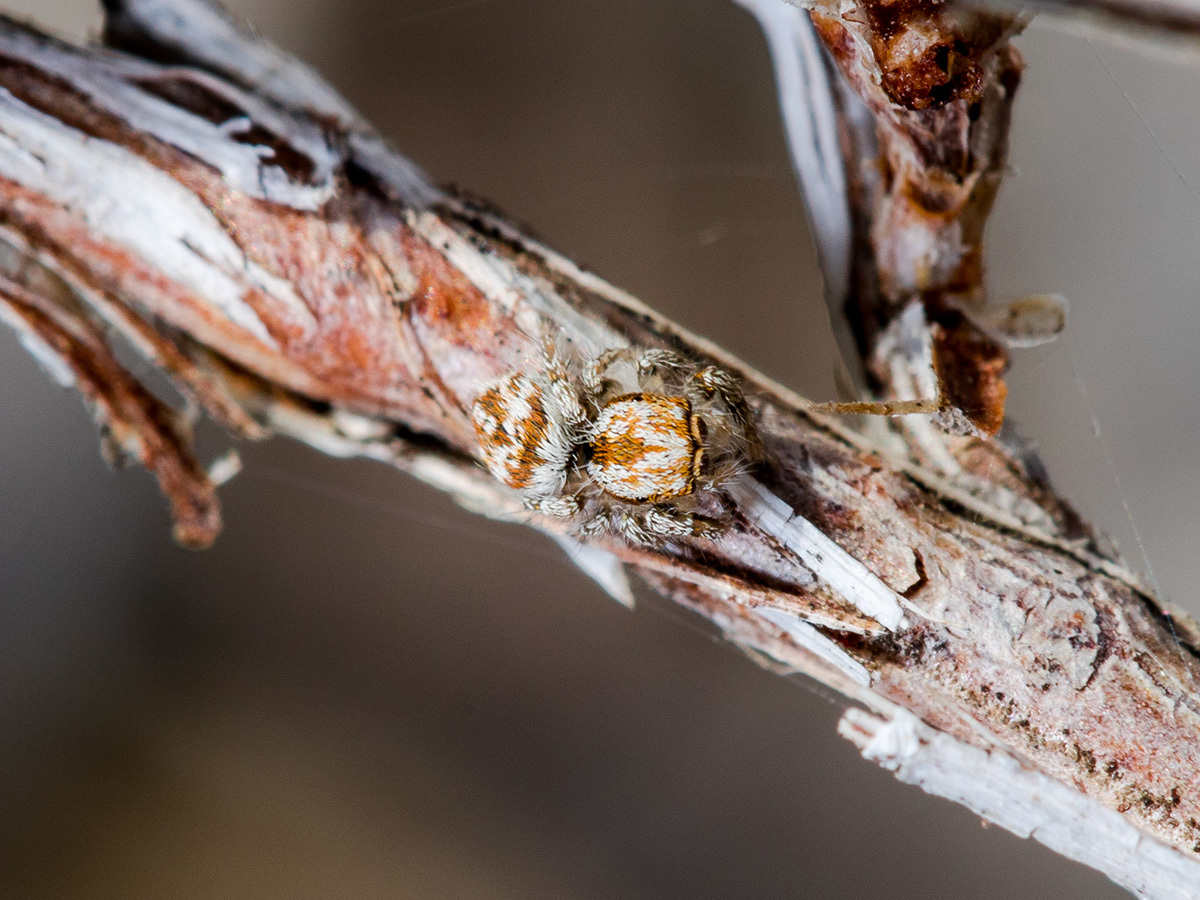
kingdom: Animalia
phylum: Arthropoda
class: Arachnida
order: Araneae
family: Salticidae
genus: Pseudomogrus
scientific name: Pseudomogrus pseudovalidus
